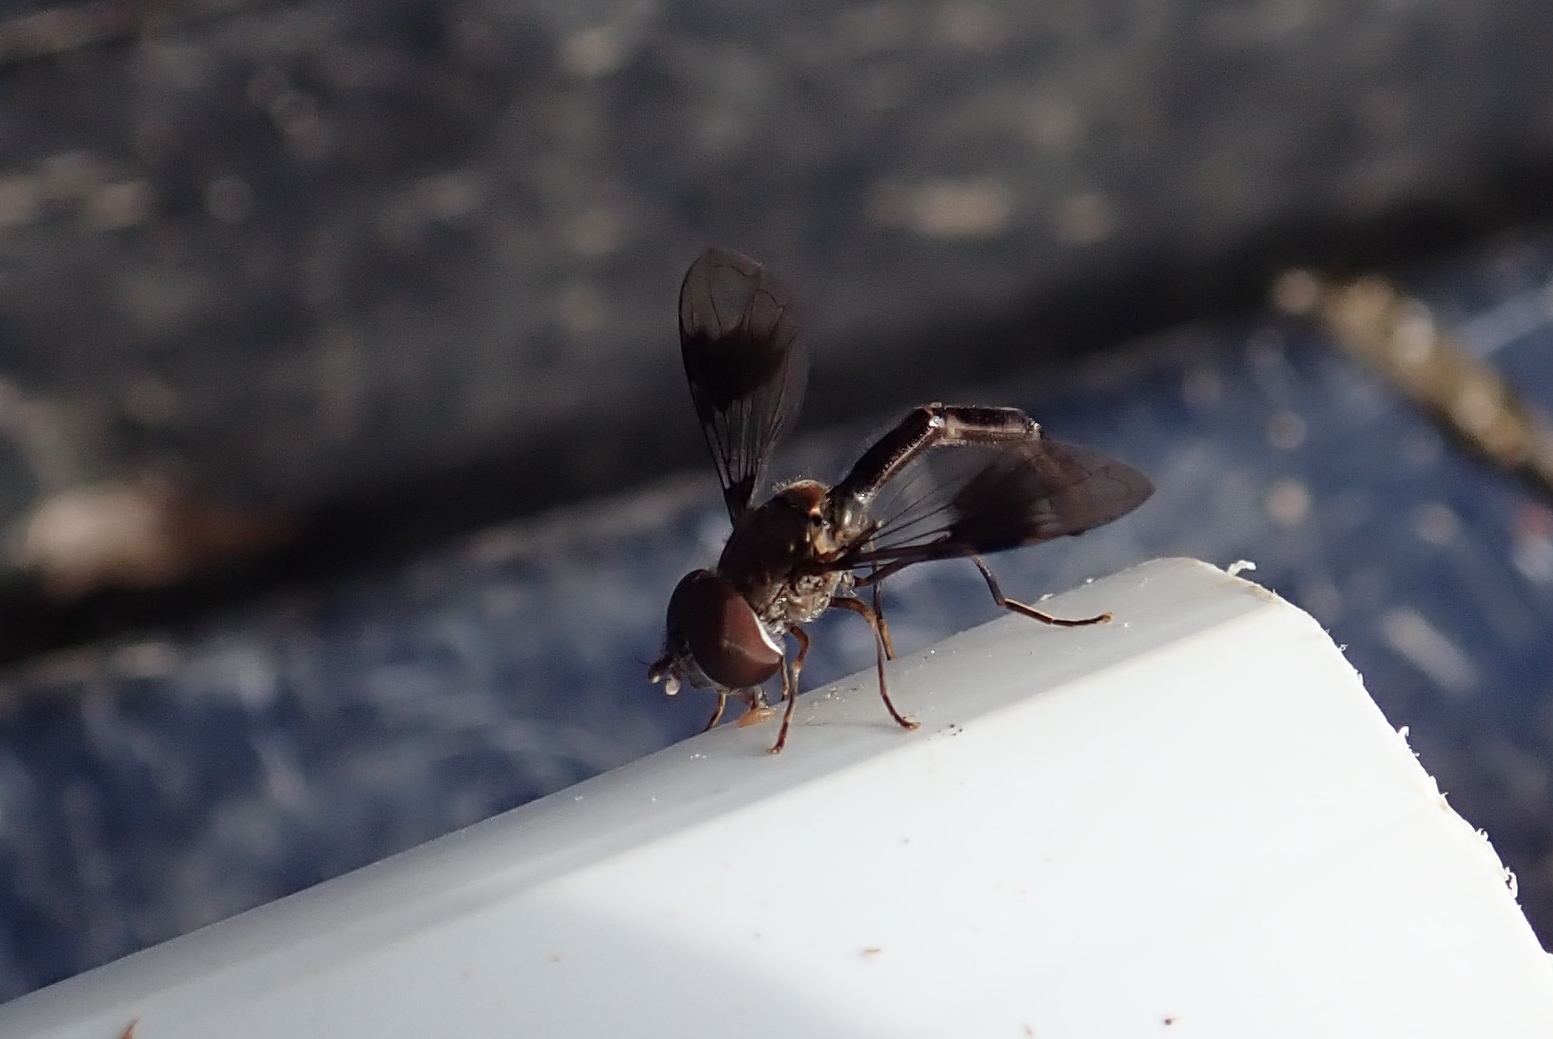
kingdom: Animalia
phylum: Arthropoda
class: Insecta
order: Diptera
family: Syrphidae
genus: Hypocritanus
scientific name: Hypocritanus fascipennis
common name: Eastern band-winged hover fly
